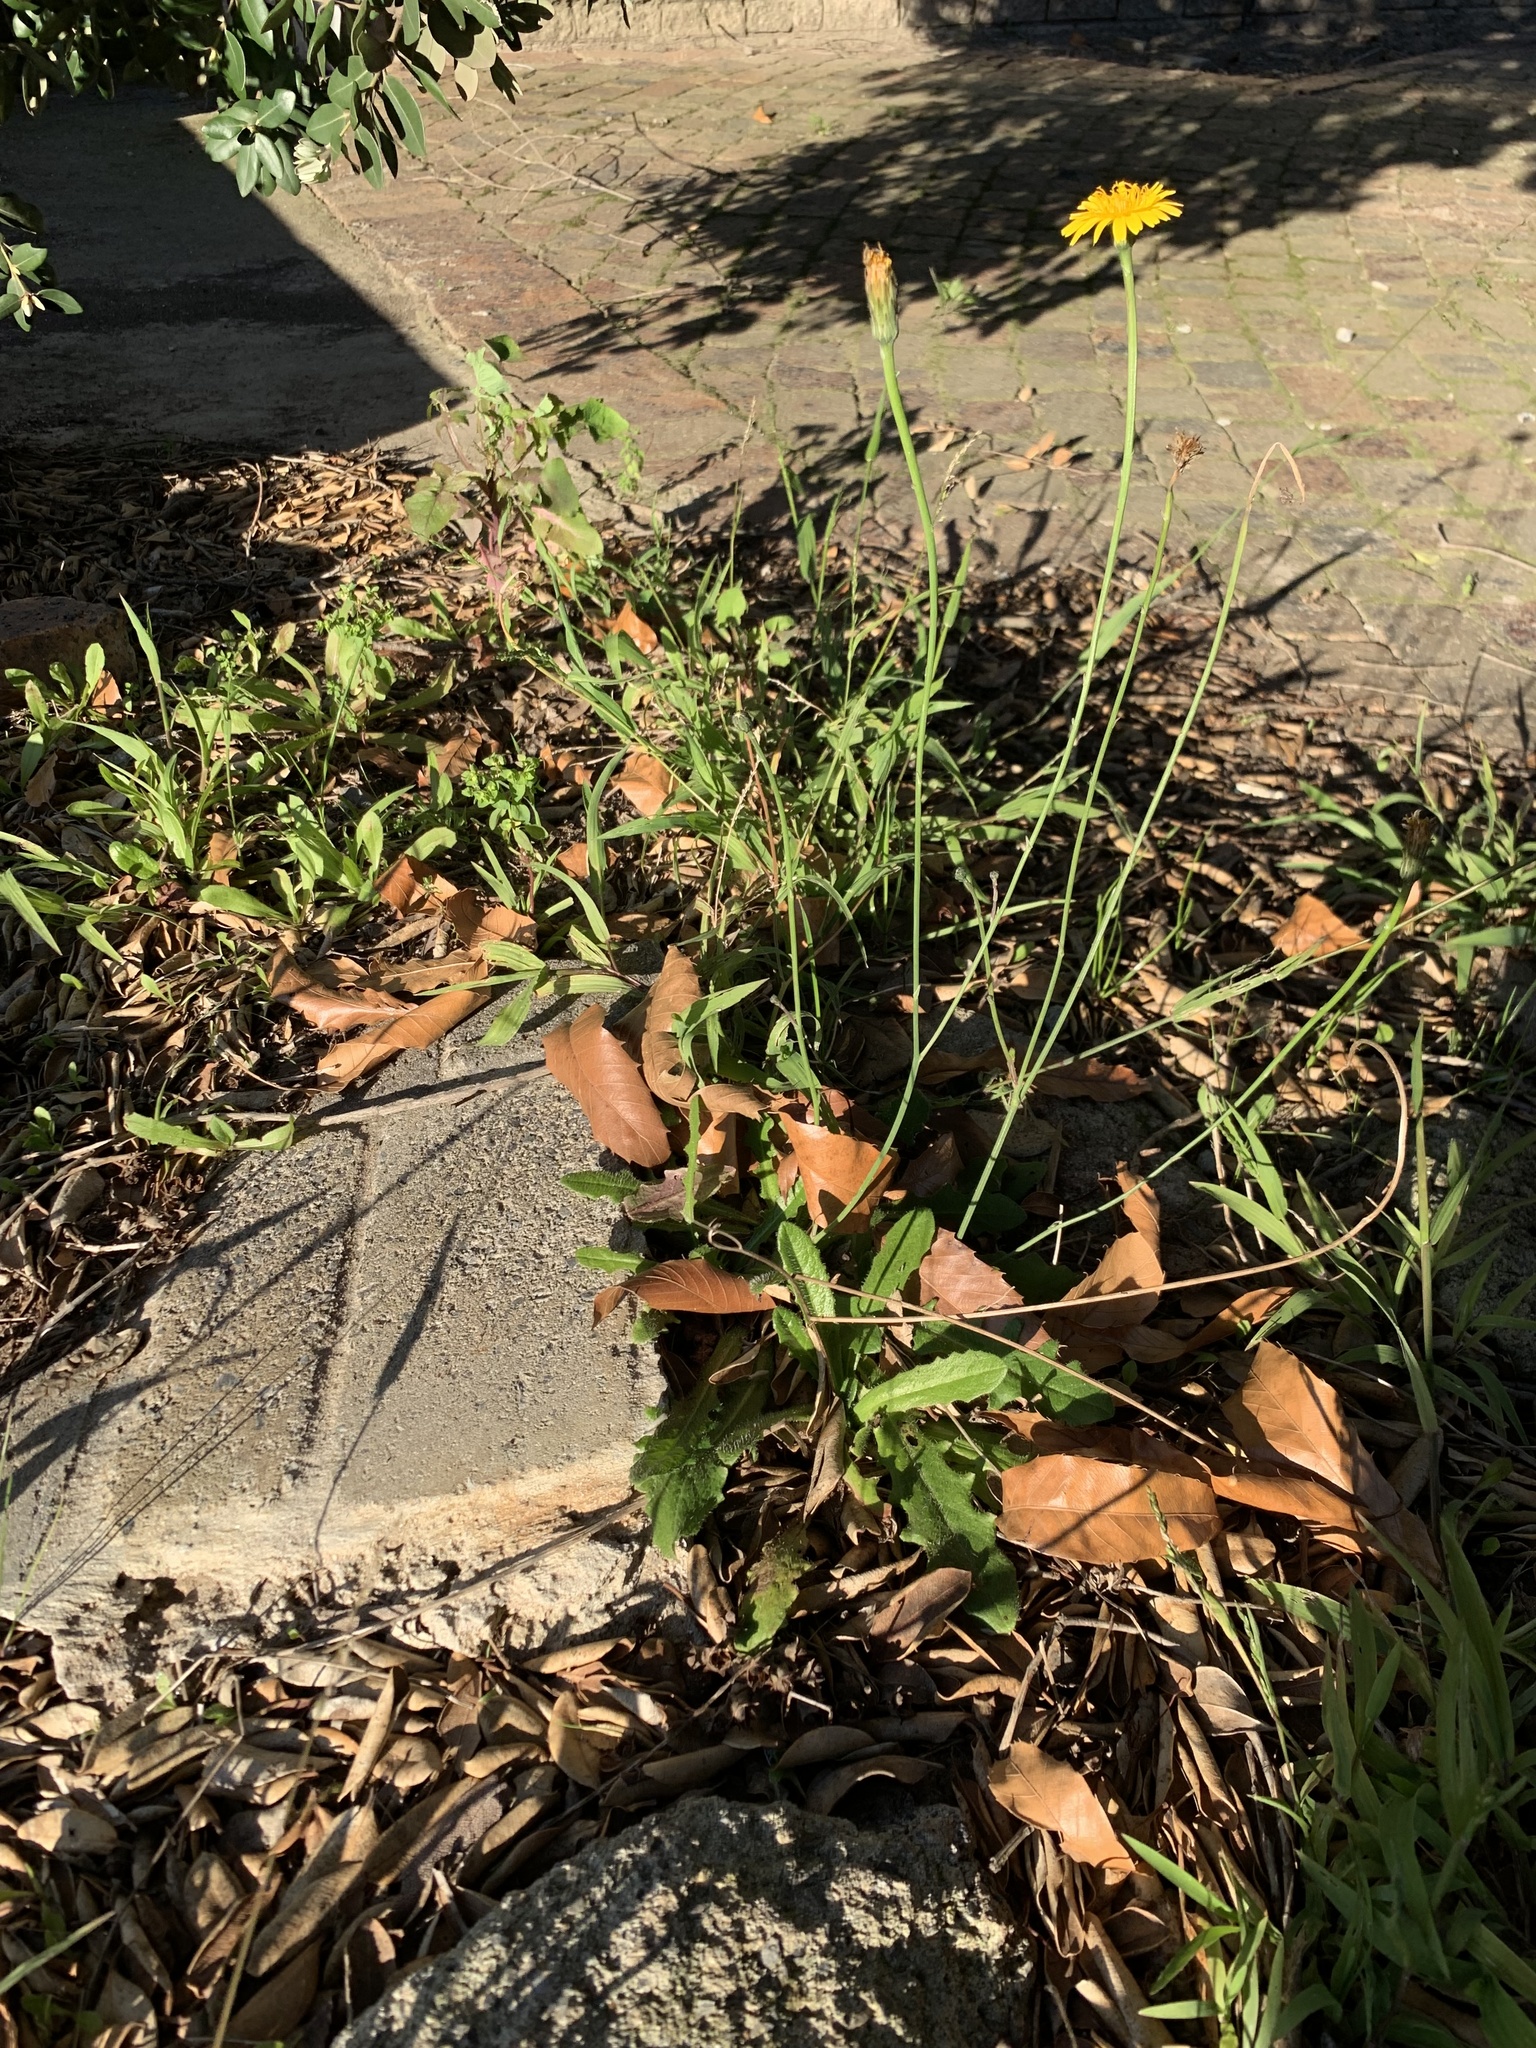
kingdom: Plantae
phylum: Tracheophyta
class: Magnoliopsida
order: Asterales
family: Asteraceae
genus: Hypochaeris
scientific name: Hypochaeris radicata
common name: Flatweed
